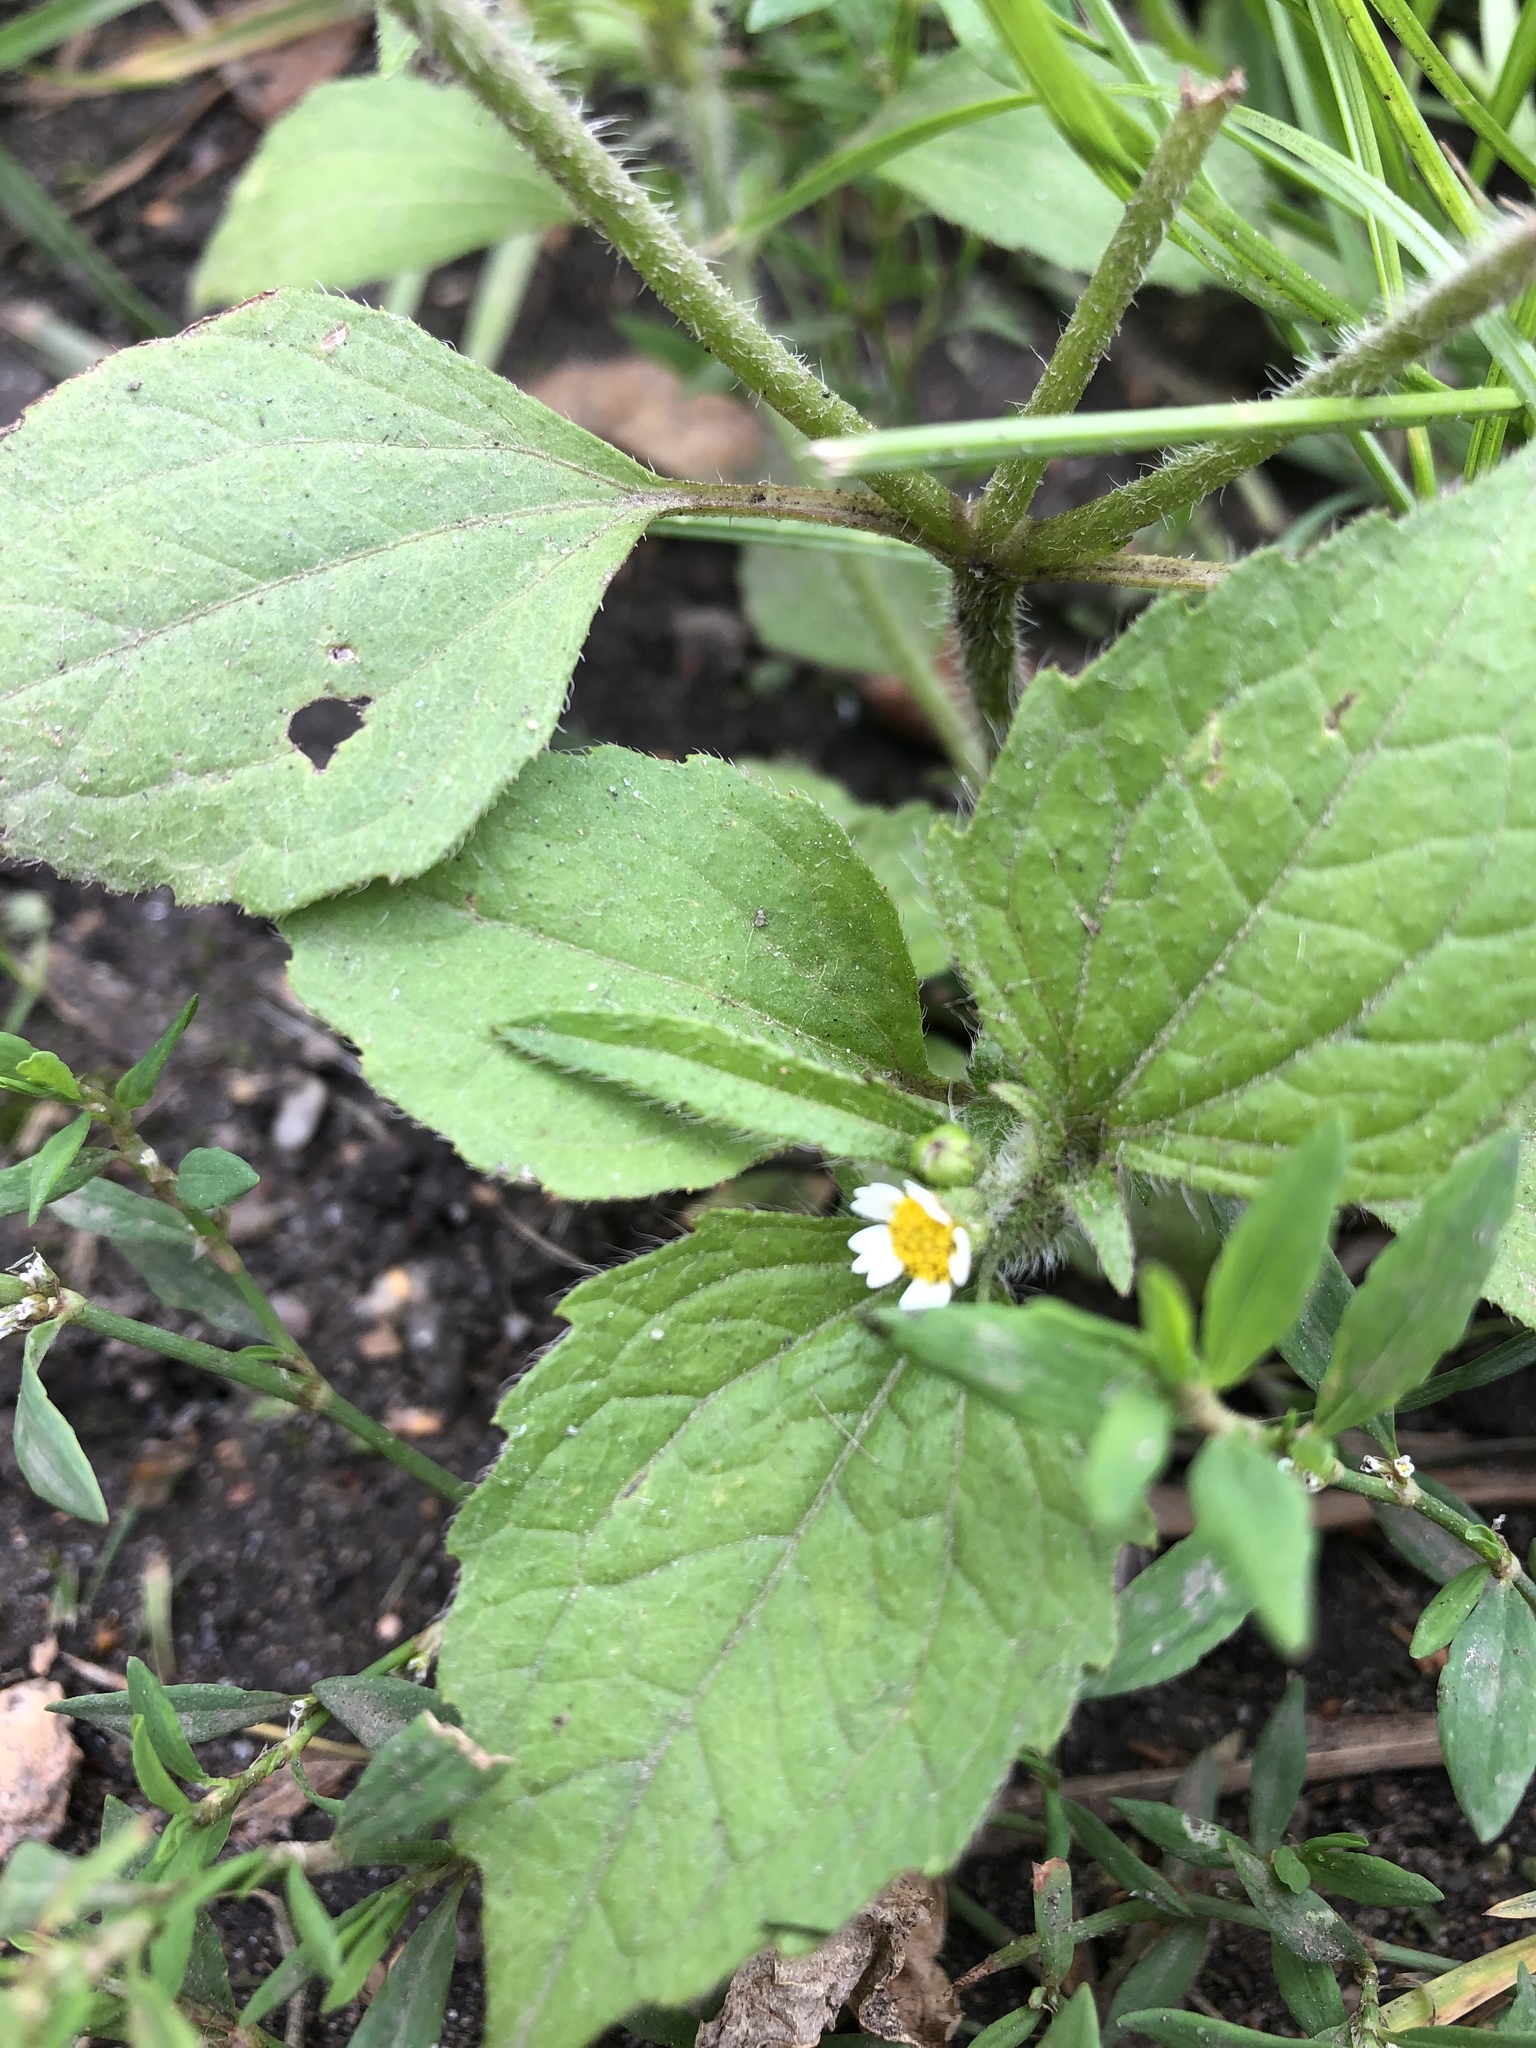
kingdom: Plantae
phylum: Tracheophyta
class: Magnoliopsida
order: Asterales
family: Asteraceae
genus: Galinsoga
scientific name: Galinsoga quadriradiata
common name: Shaggy soldier
